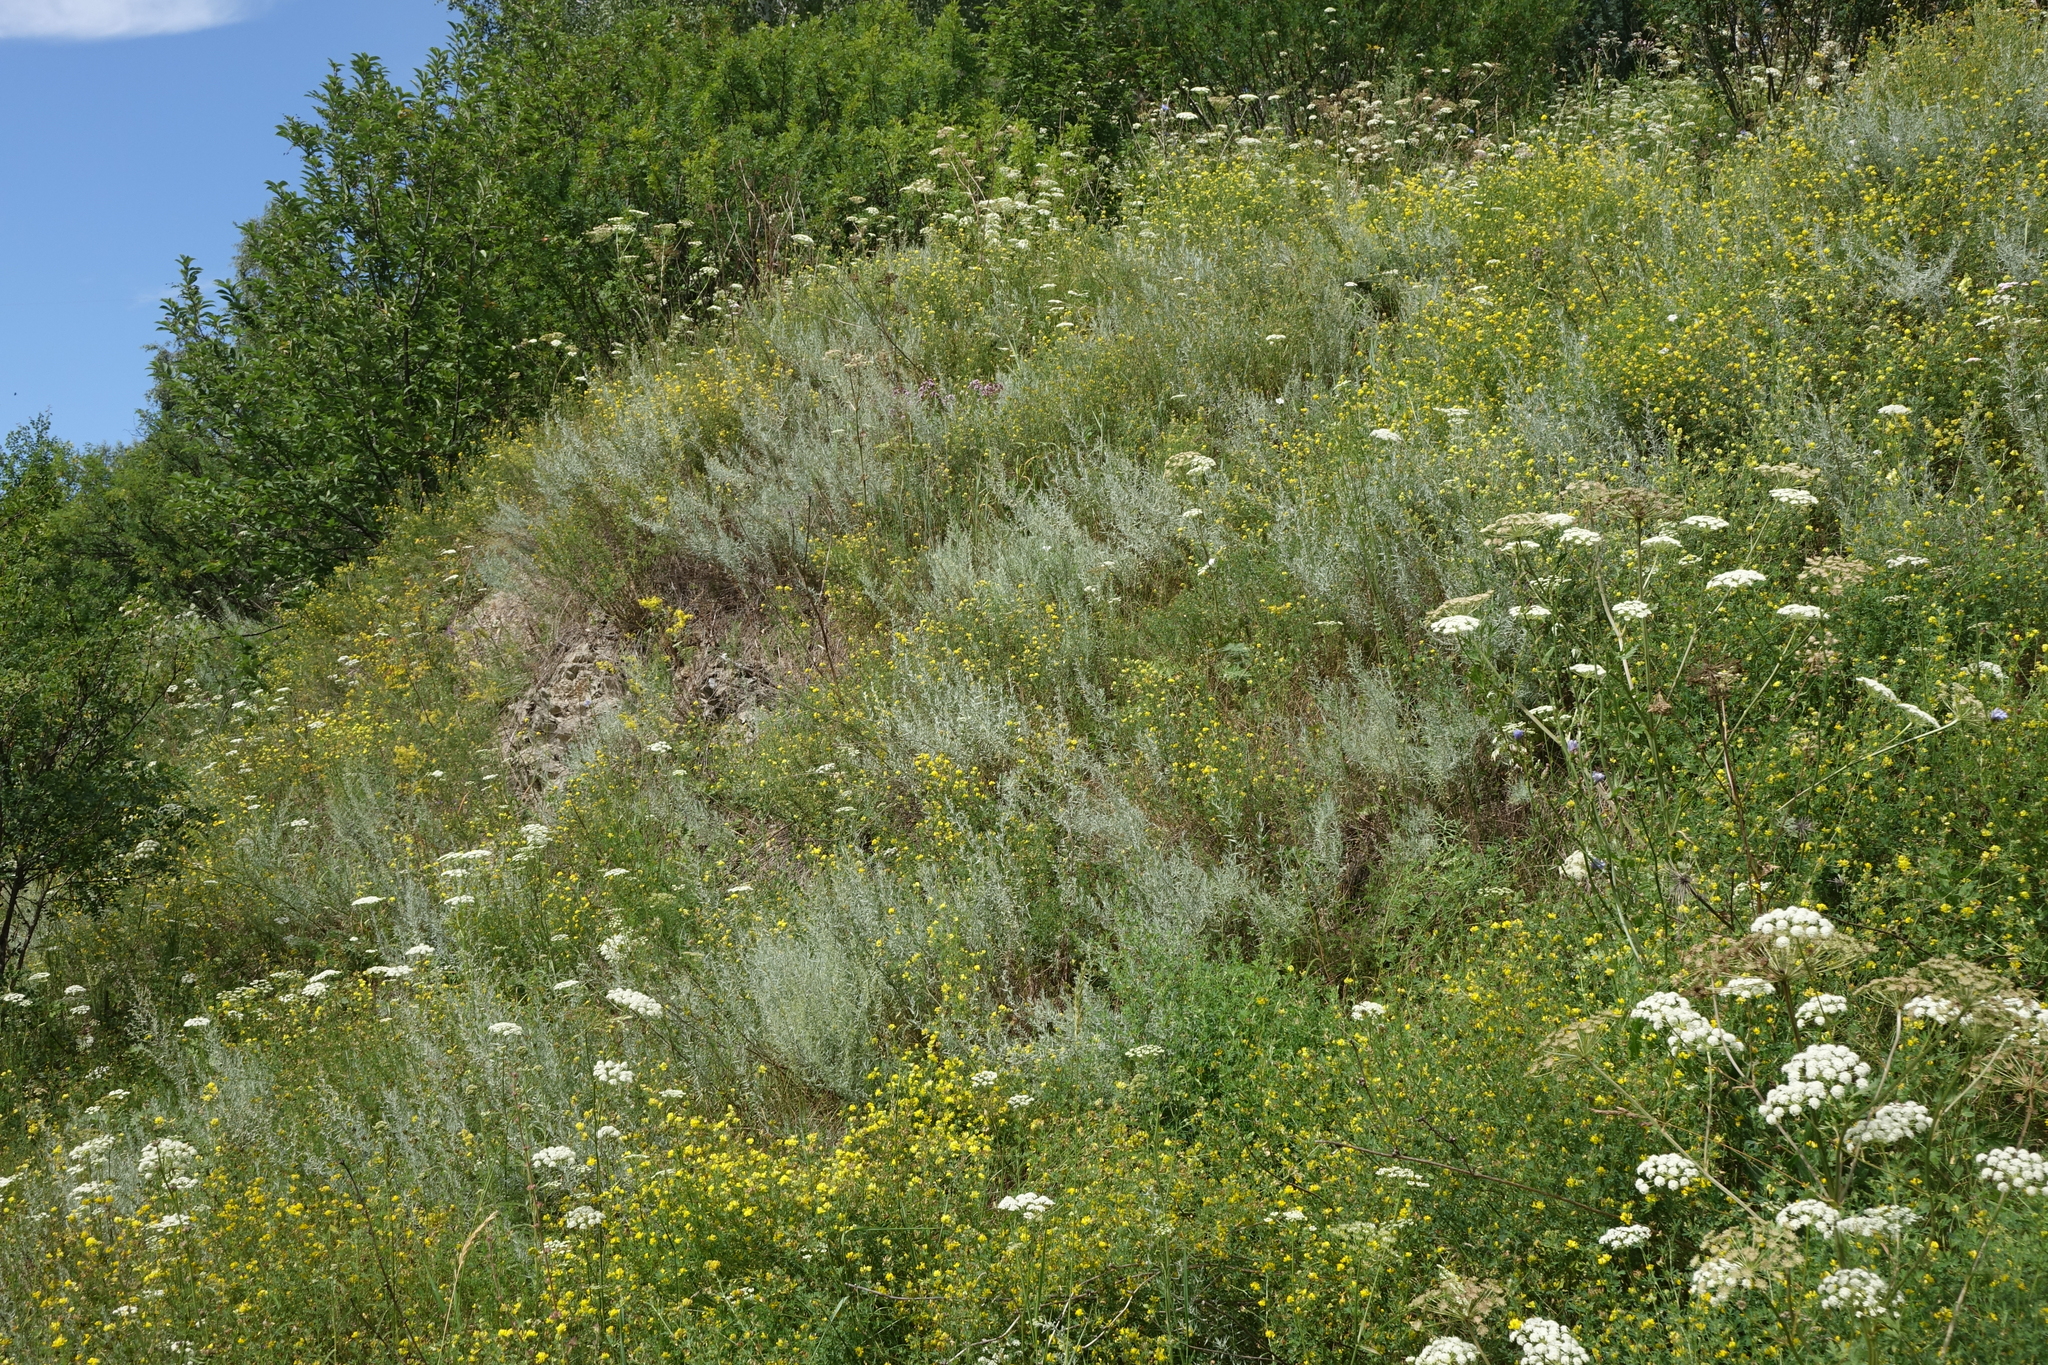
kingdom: Plantae
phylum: Tracheophyta
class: Magnoliopsida
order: Asterales
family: Asteraceae
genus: Artemisia
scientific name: Artemisia glauca
